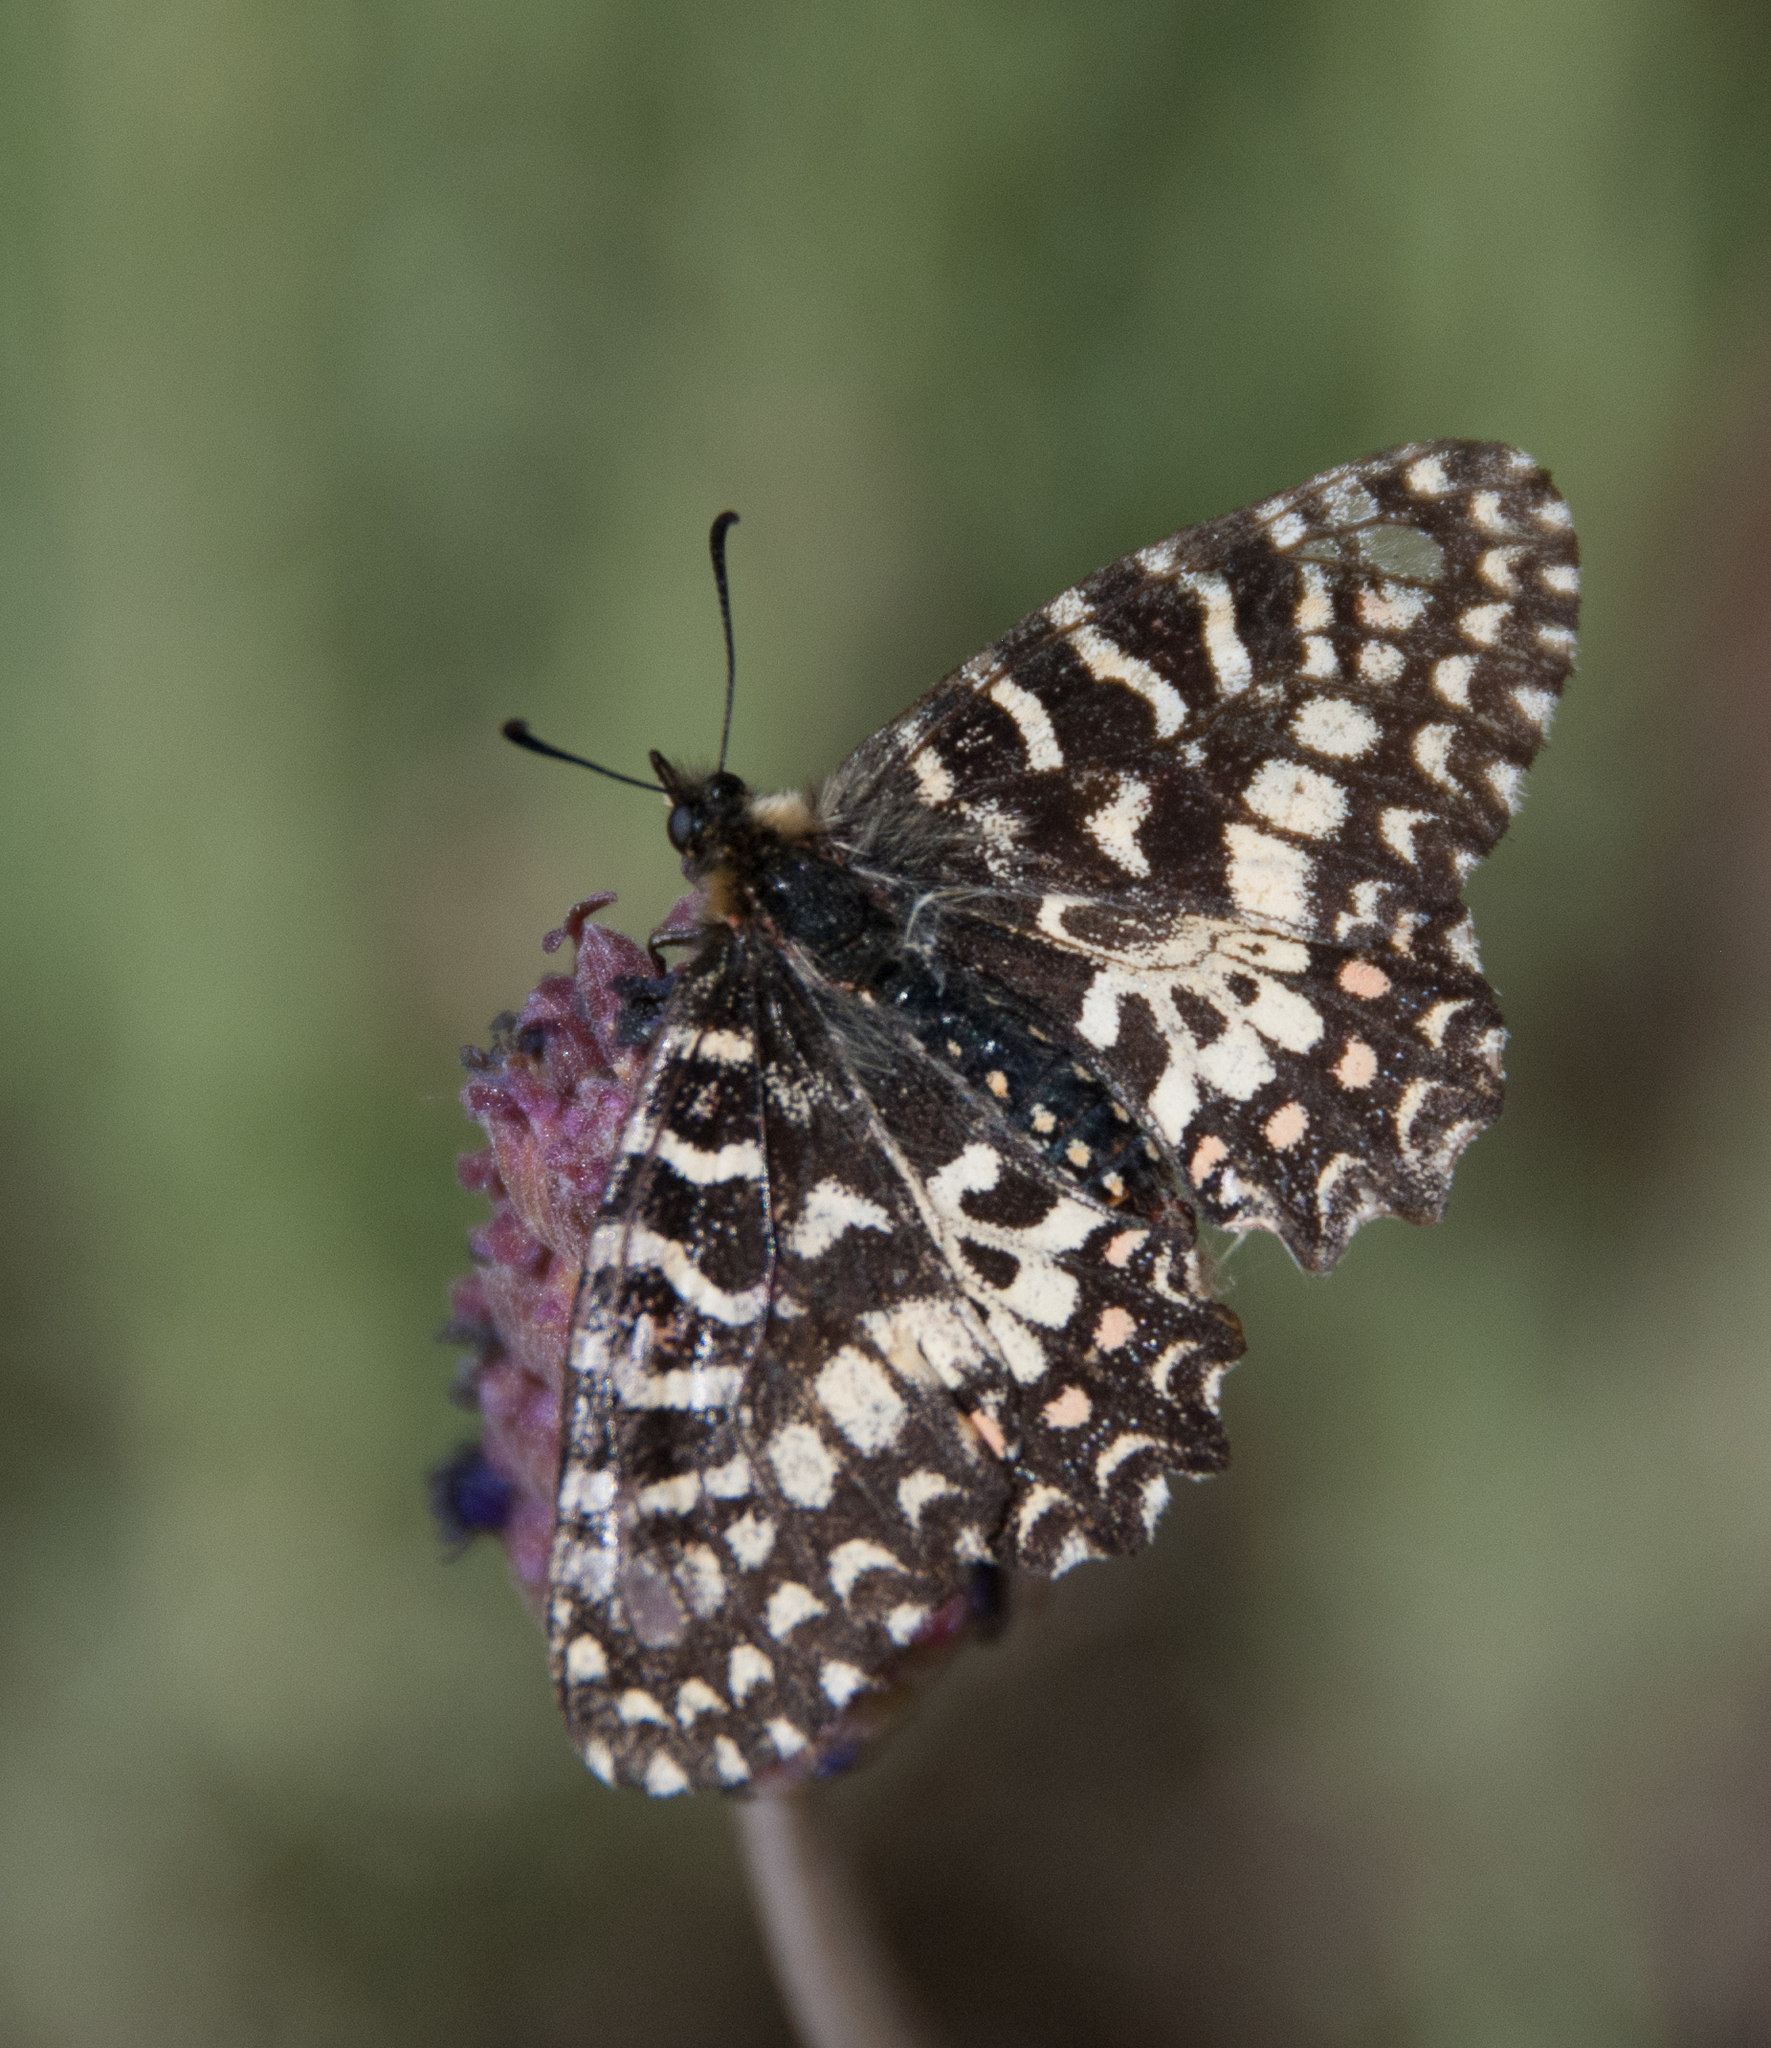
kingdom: Animalia
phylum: Arthropoda
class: Insecta
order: Lepidoptera
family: Papilionidae
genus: Zerynthia
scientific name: Zerynthia rumina
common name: Spanish festoon
